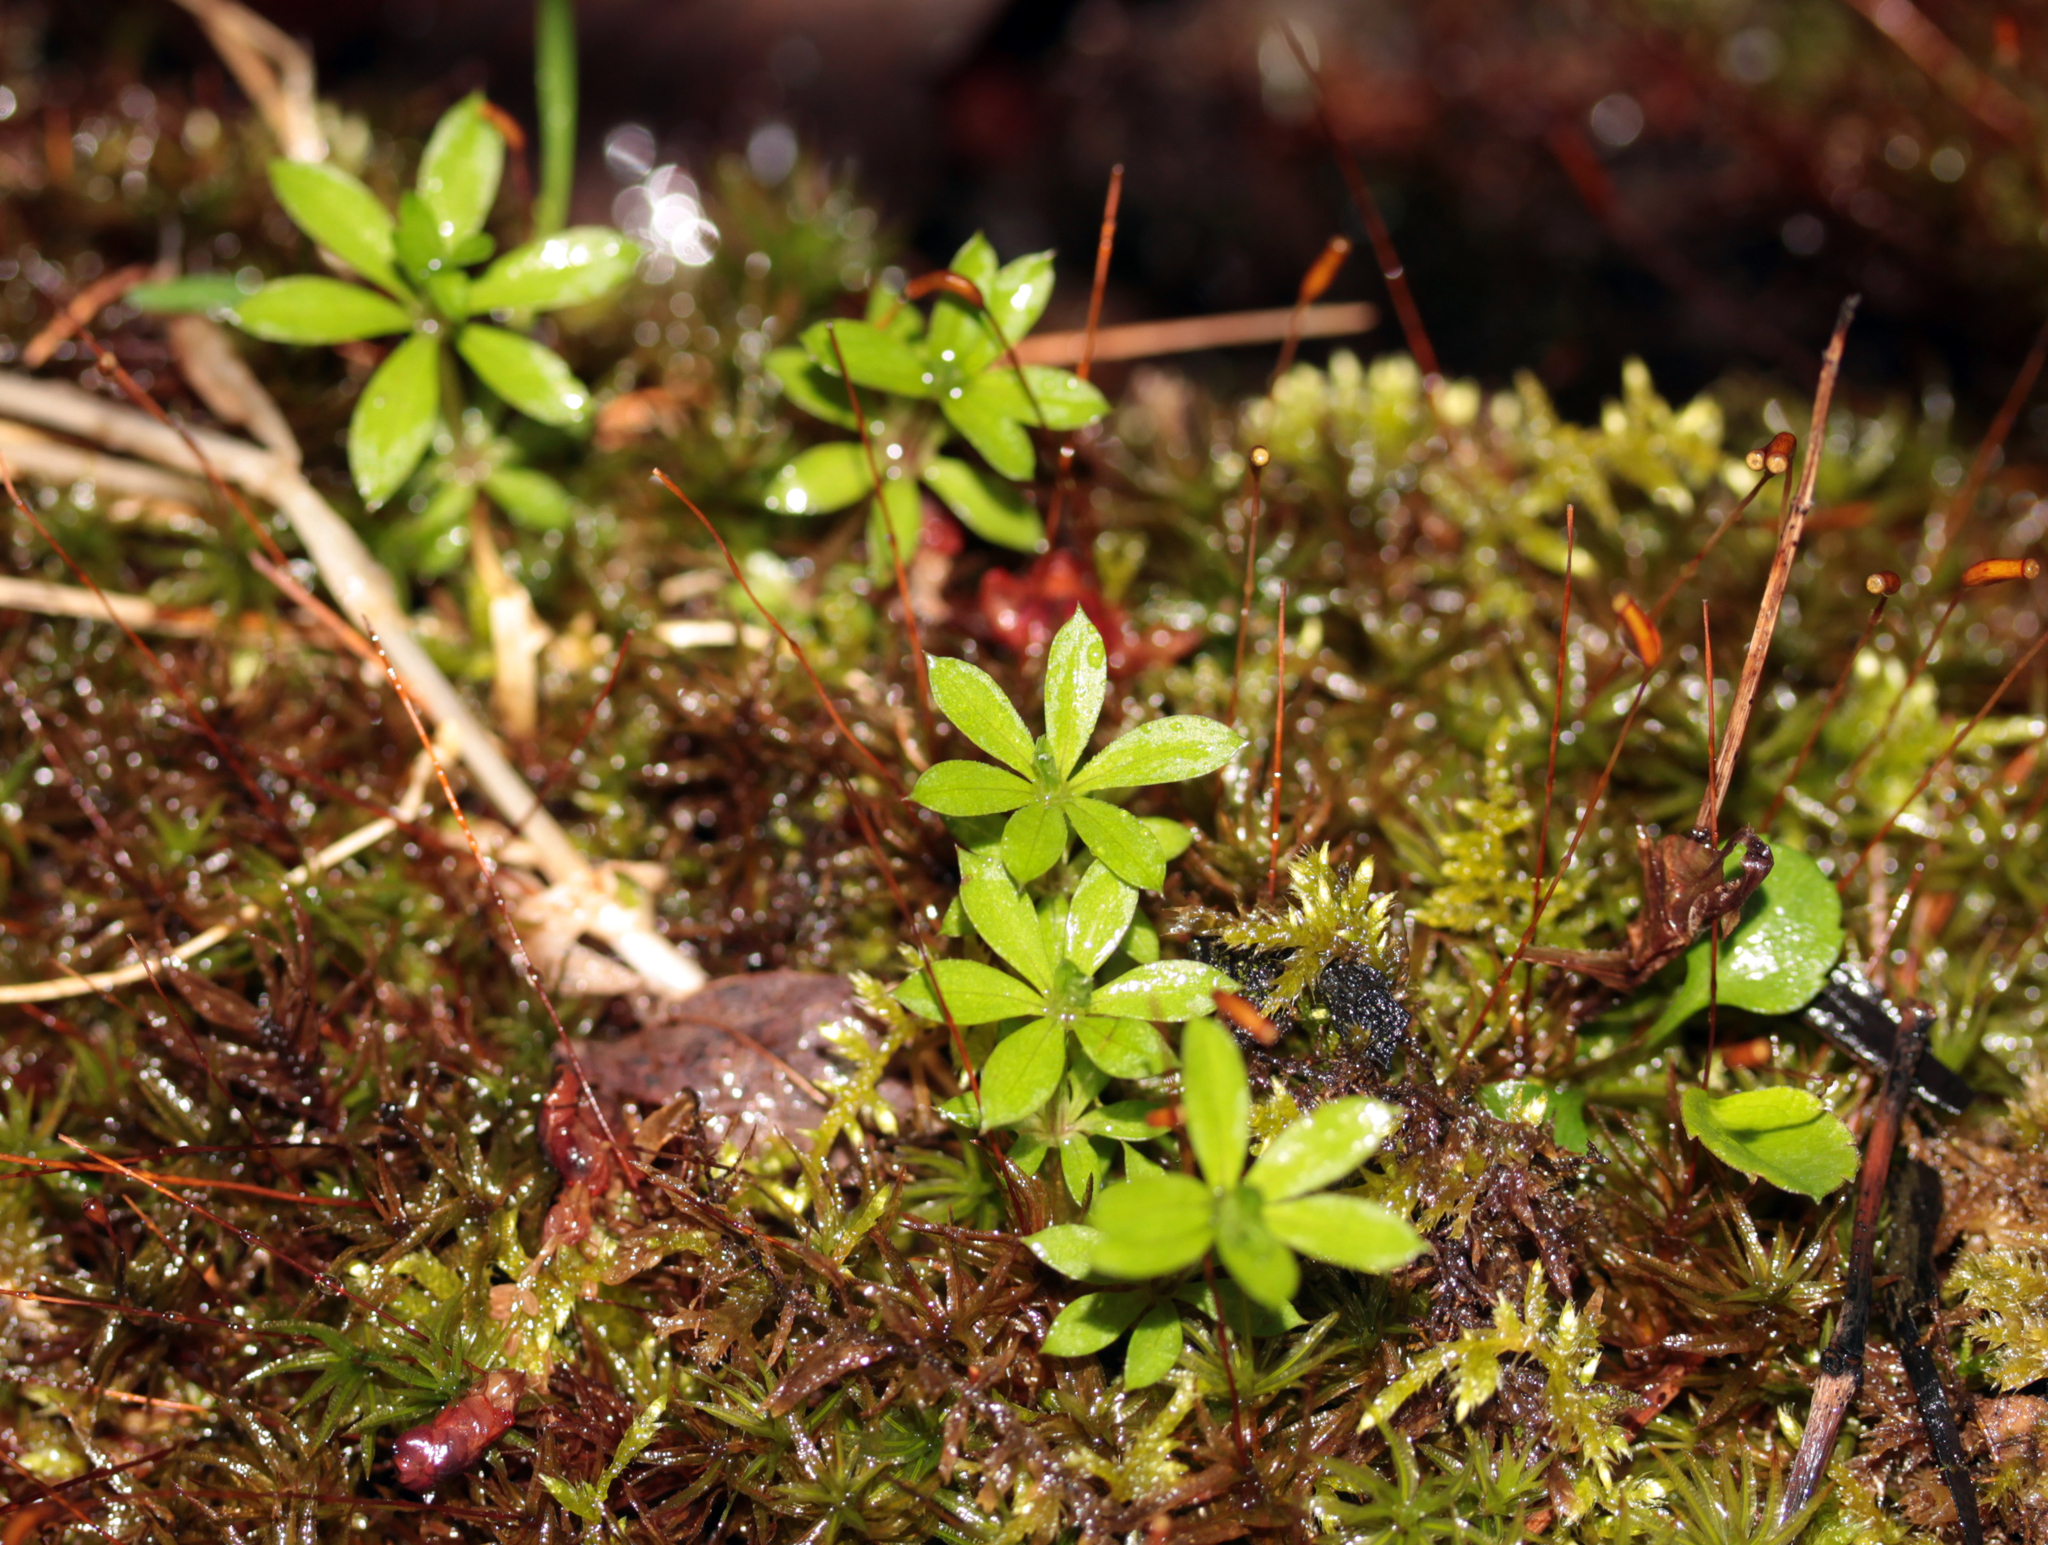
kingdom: Plantae
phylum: Tracheophyta
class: Magnoliopsida
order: Gentianales
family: Rubiaceae
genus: Galium
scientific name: Galium triflorum
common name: Fragrant bedstraw
